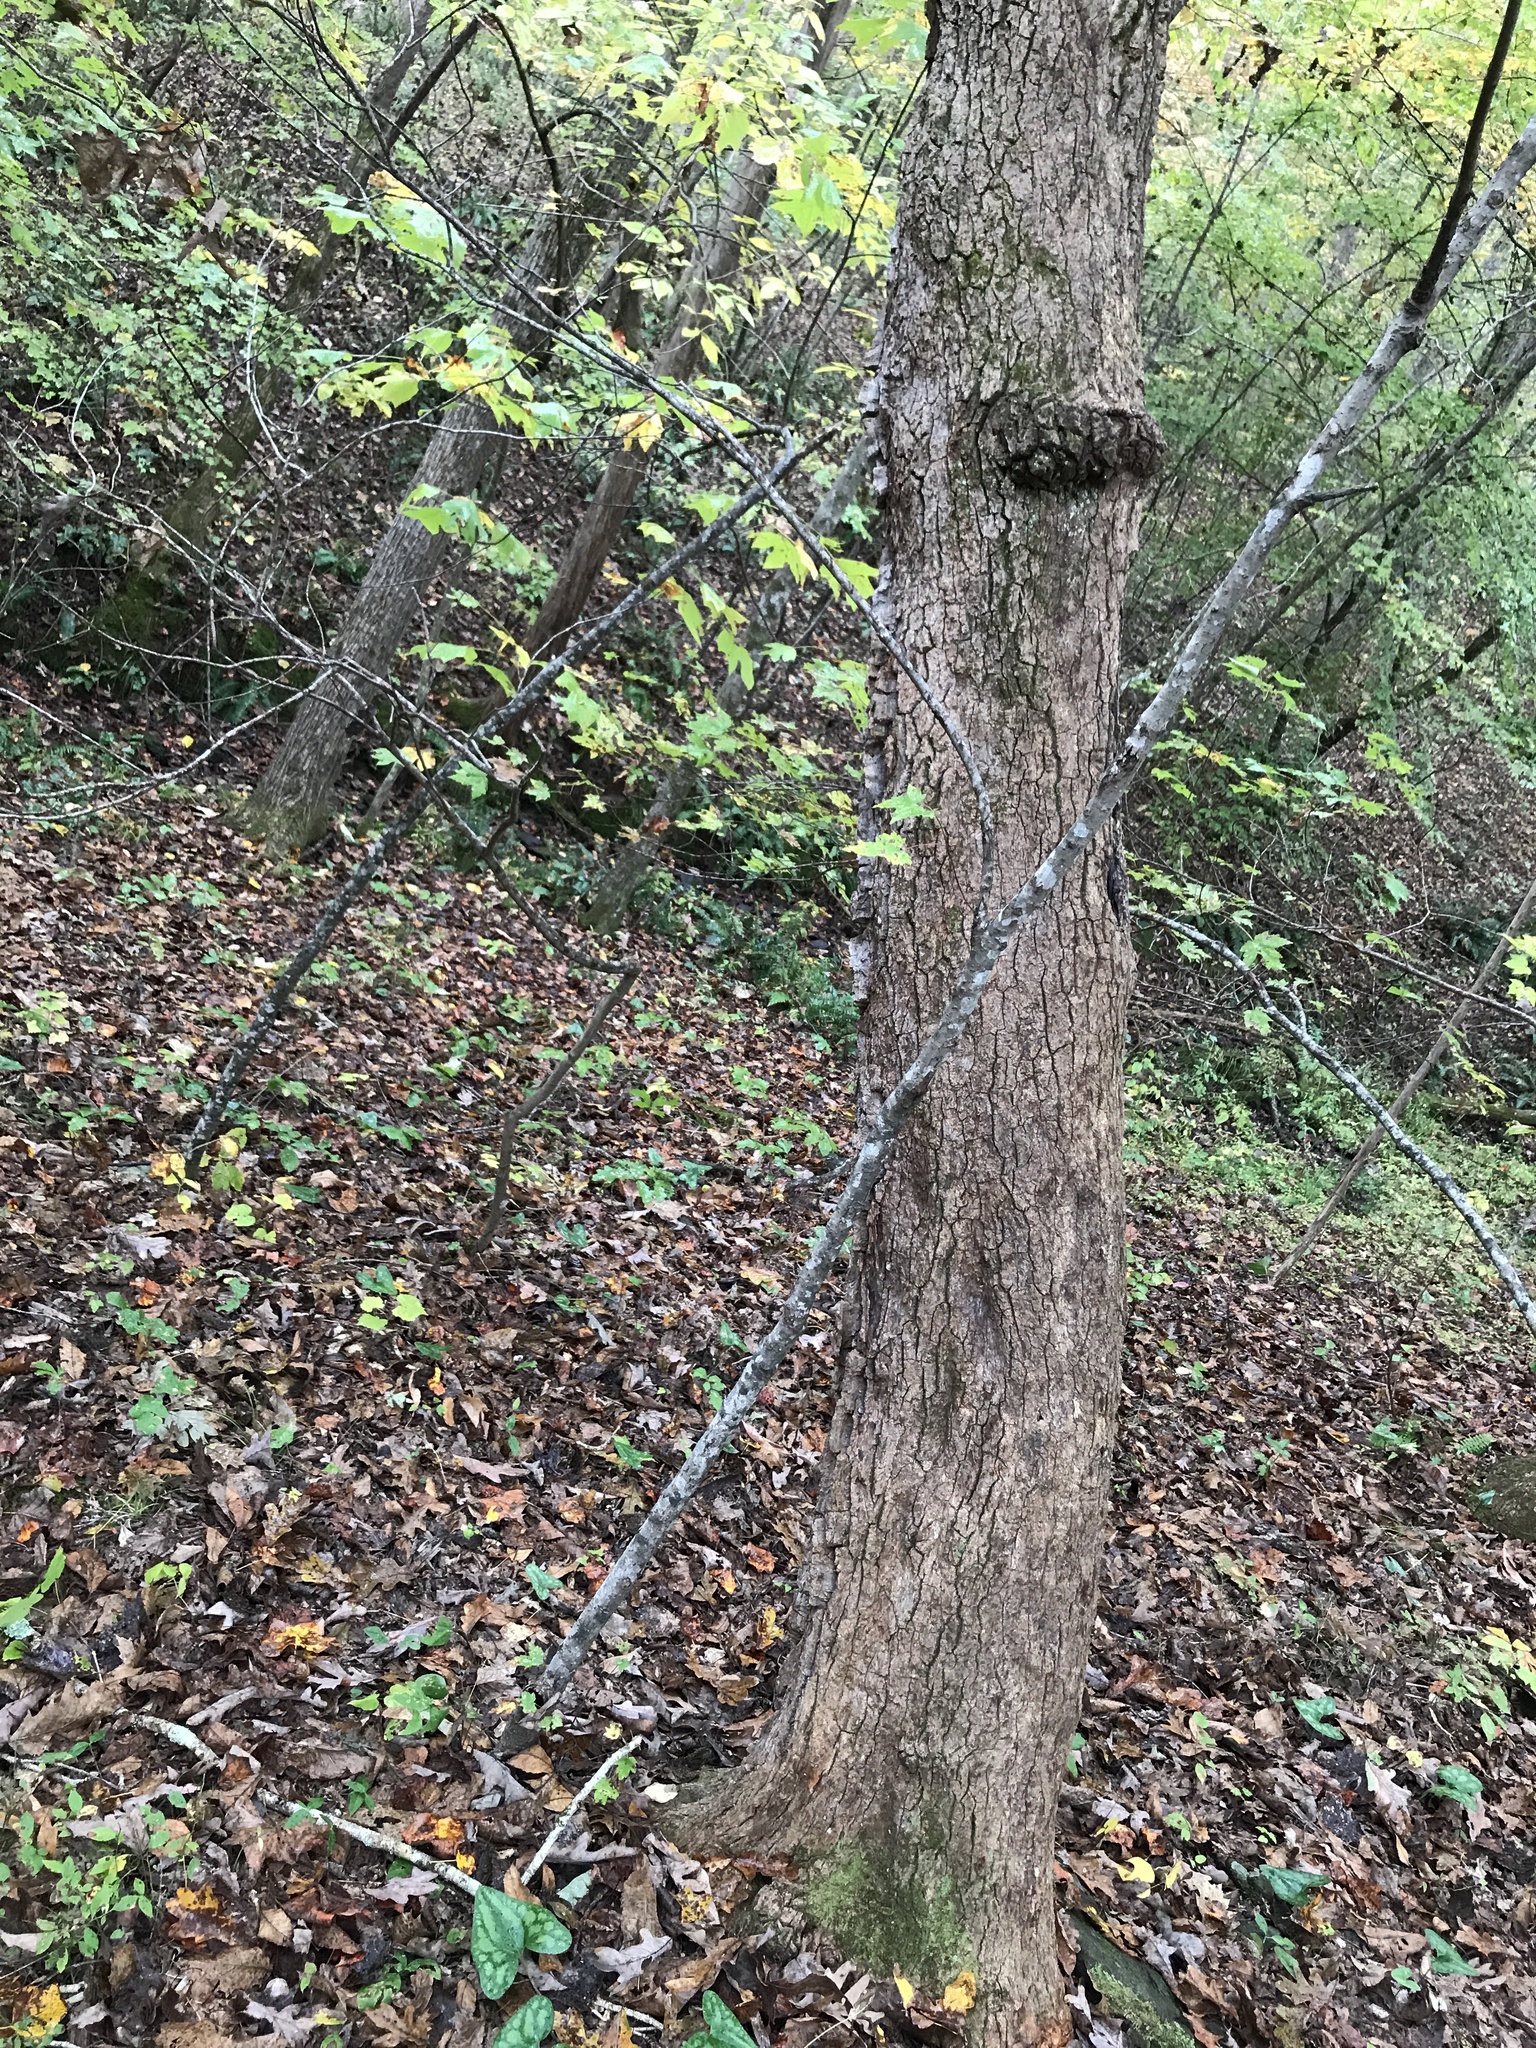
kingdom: Plantae
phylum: Tracheophyta
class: Magnoliopsida
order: Ericales
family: Ericaceae
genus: Oxydendrum
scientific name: Oxydendrum arboreum
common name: Sourwood
